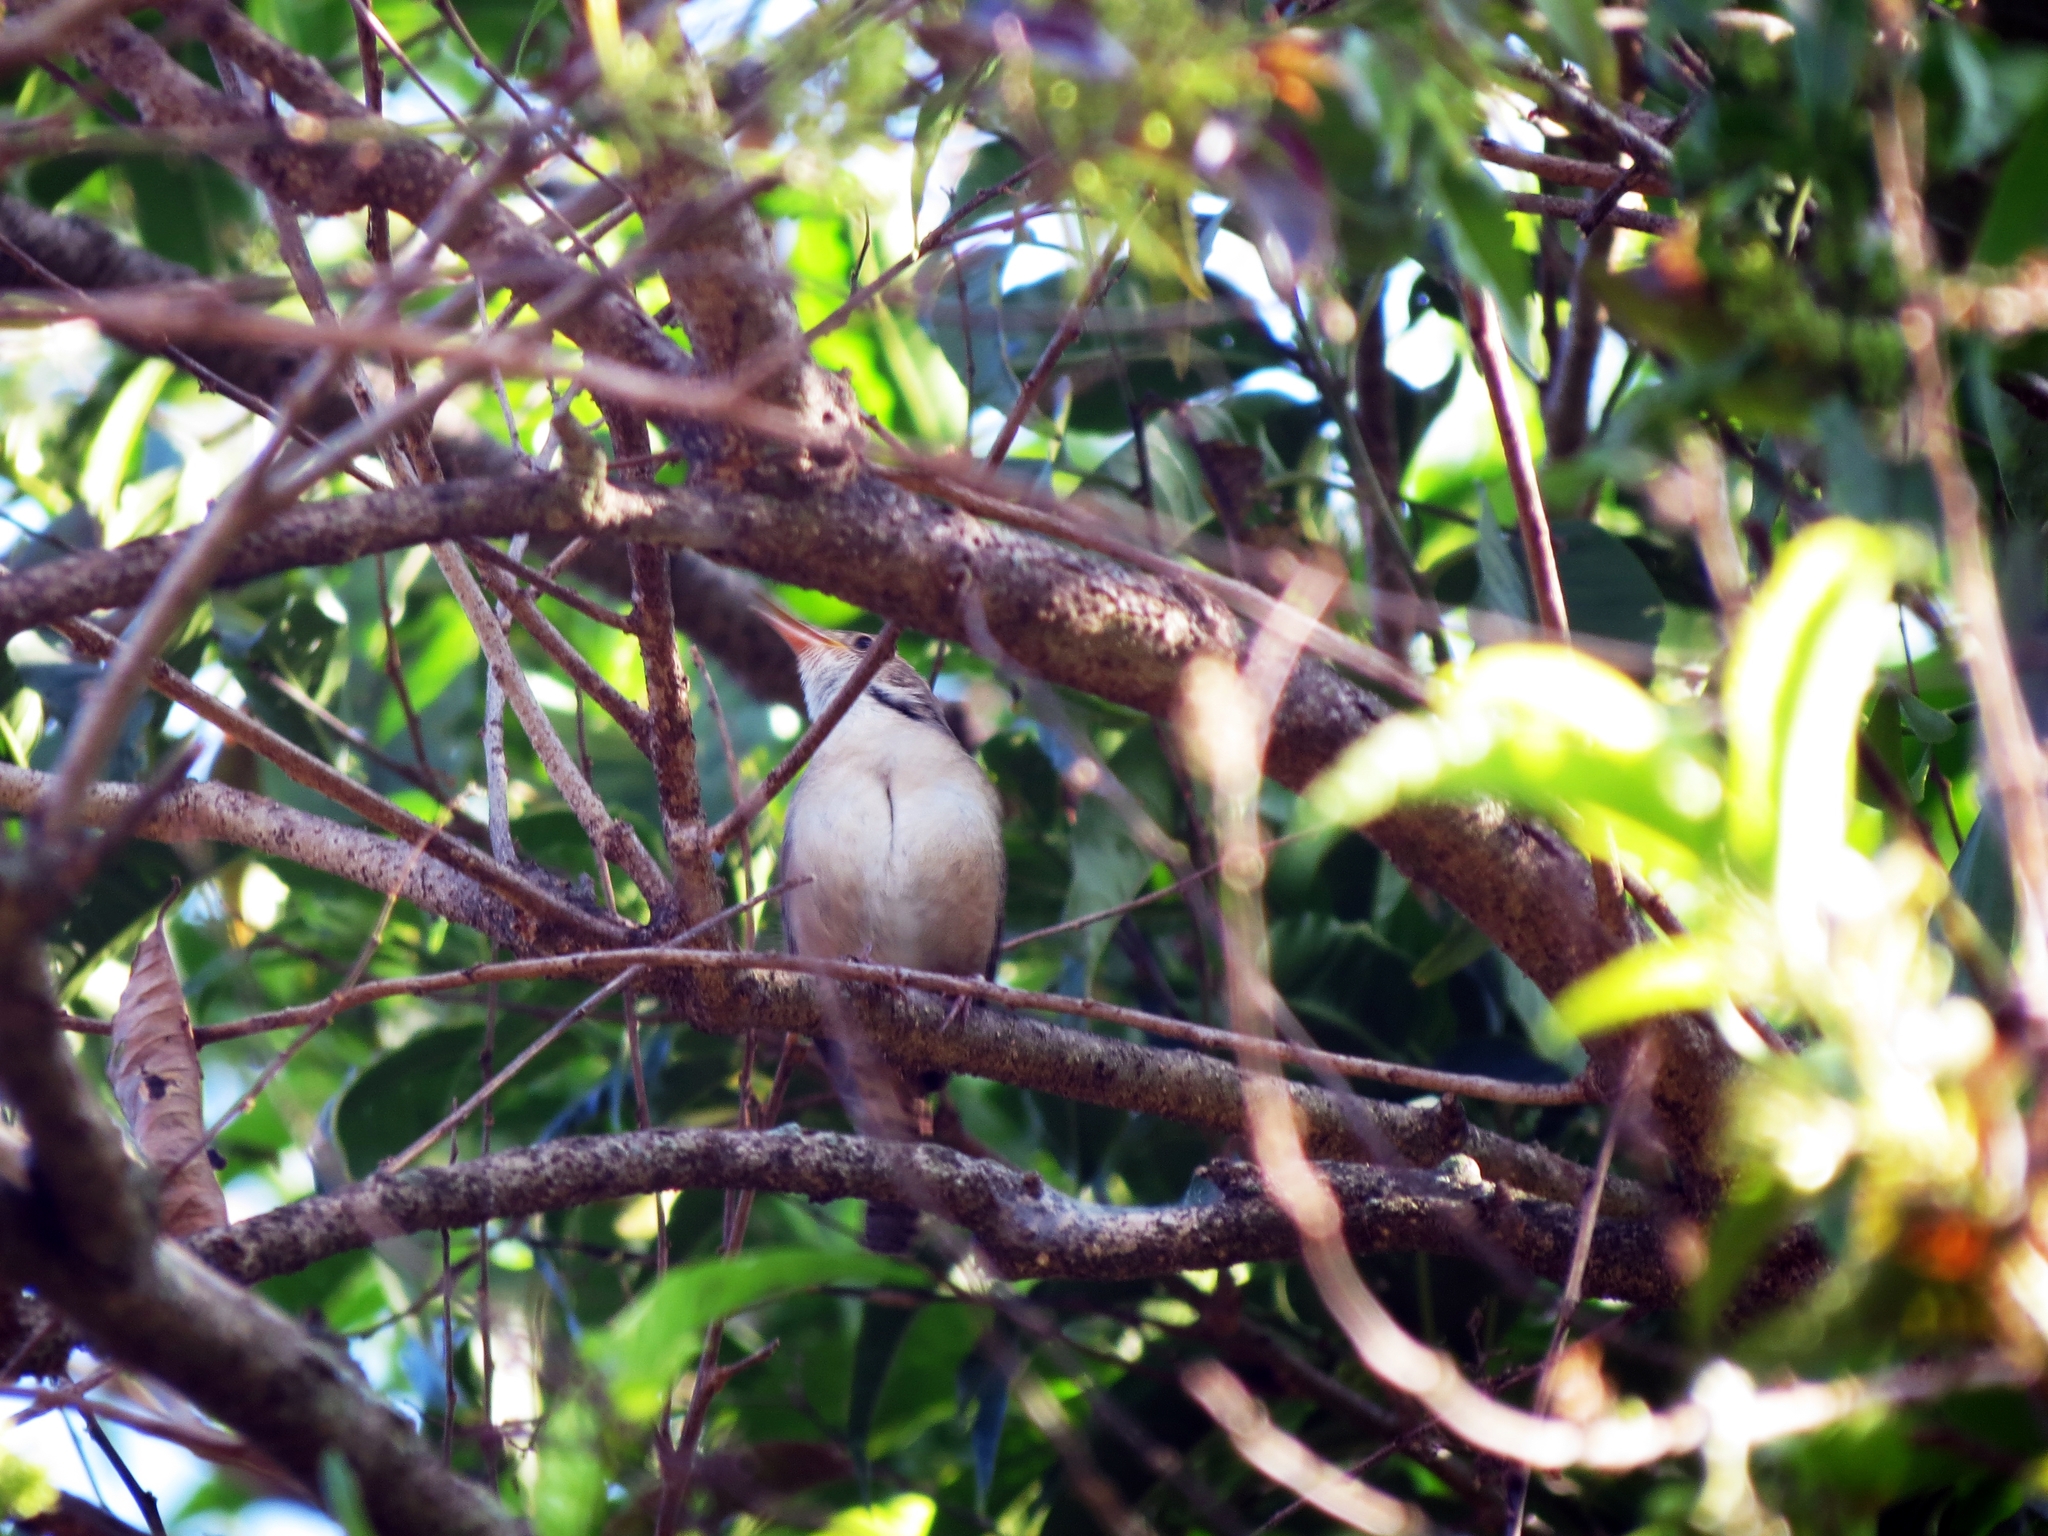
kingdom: Animalia
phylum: Chordata
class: Aves
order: Passeriformes
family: Troglodytidae
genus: Troglodytes
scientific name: Troglodytes aedon
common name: House wren
